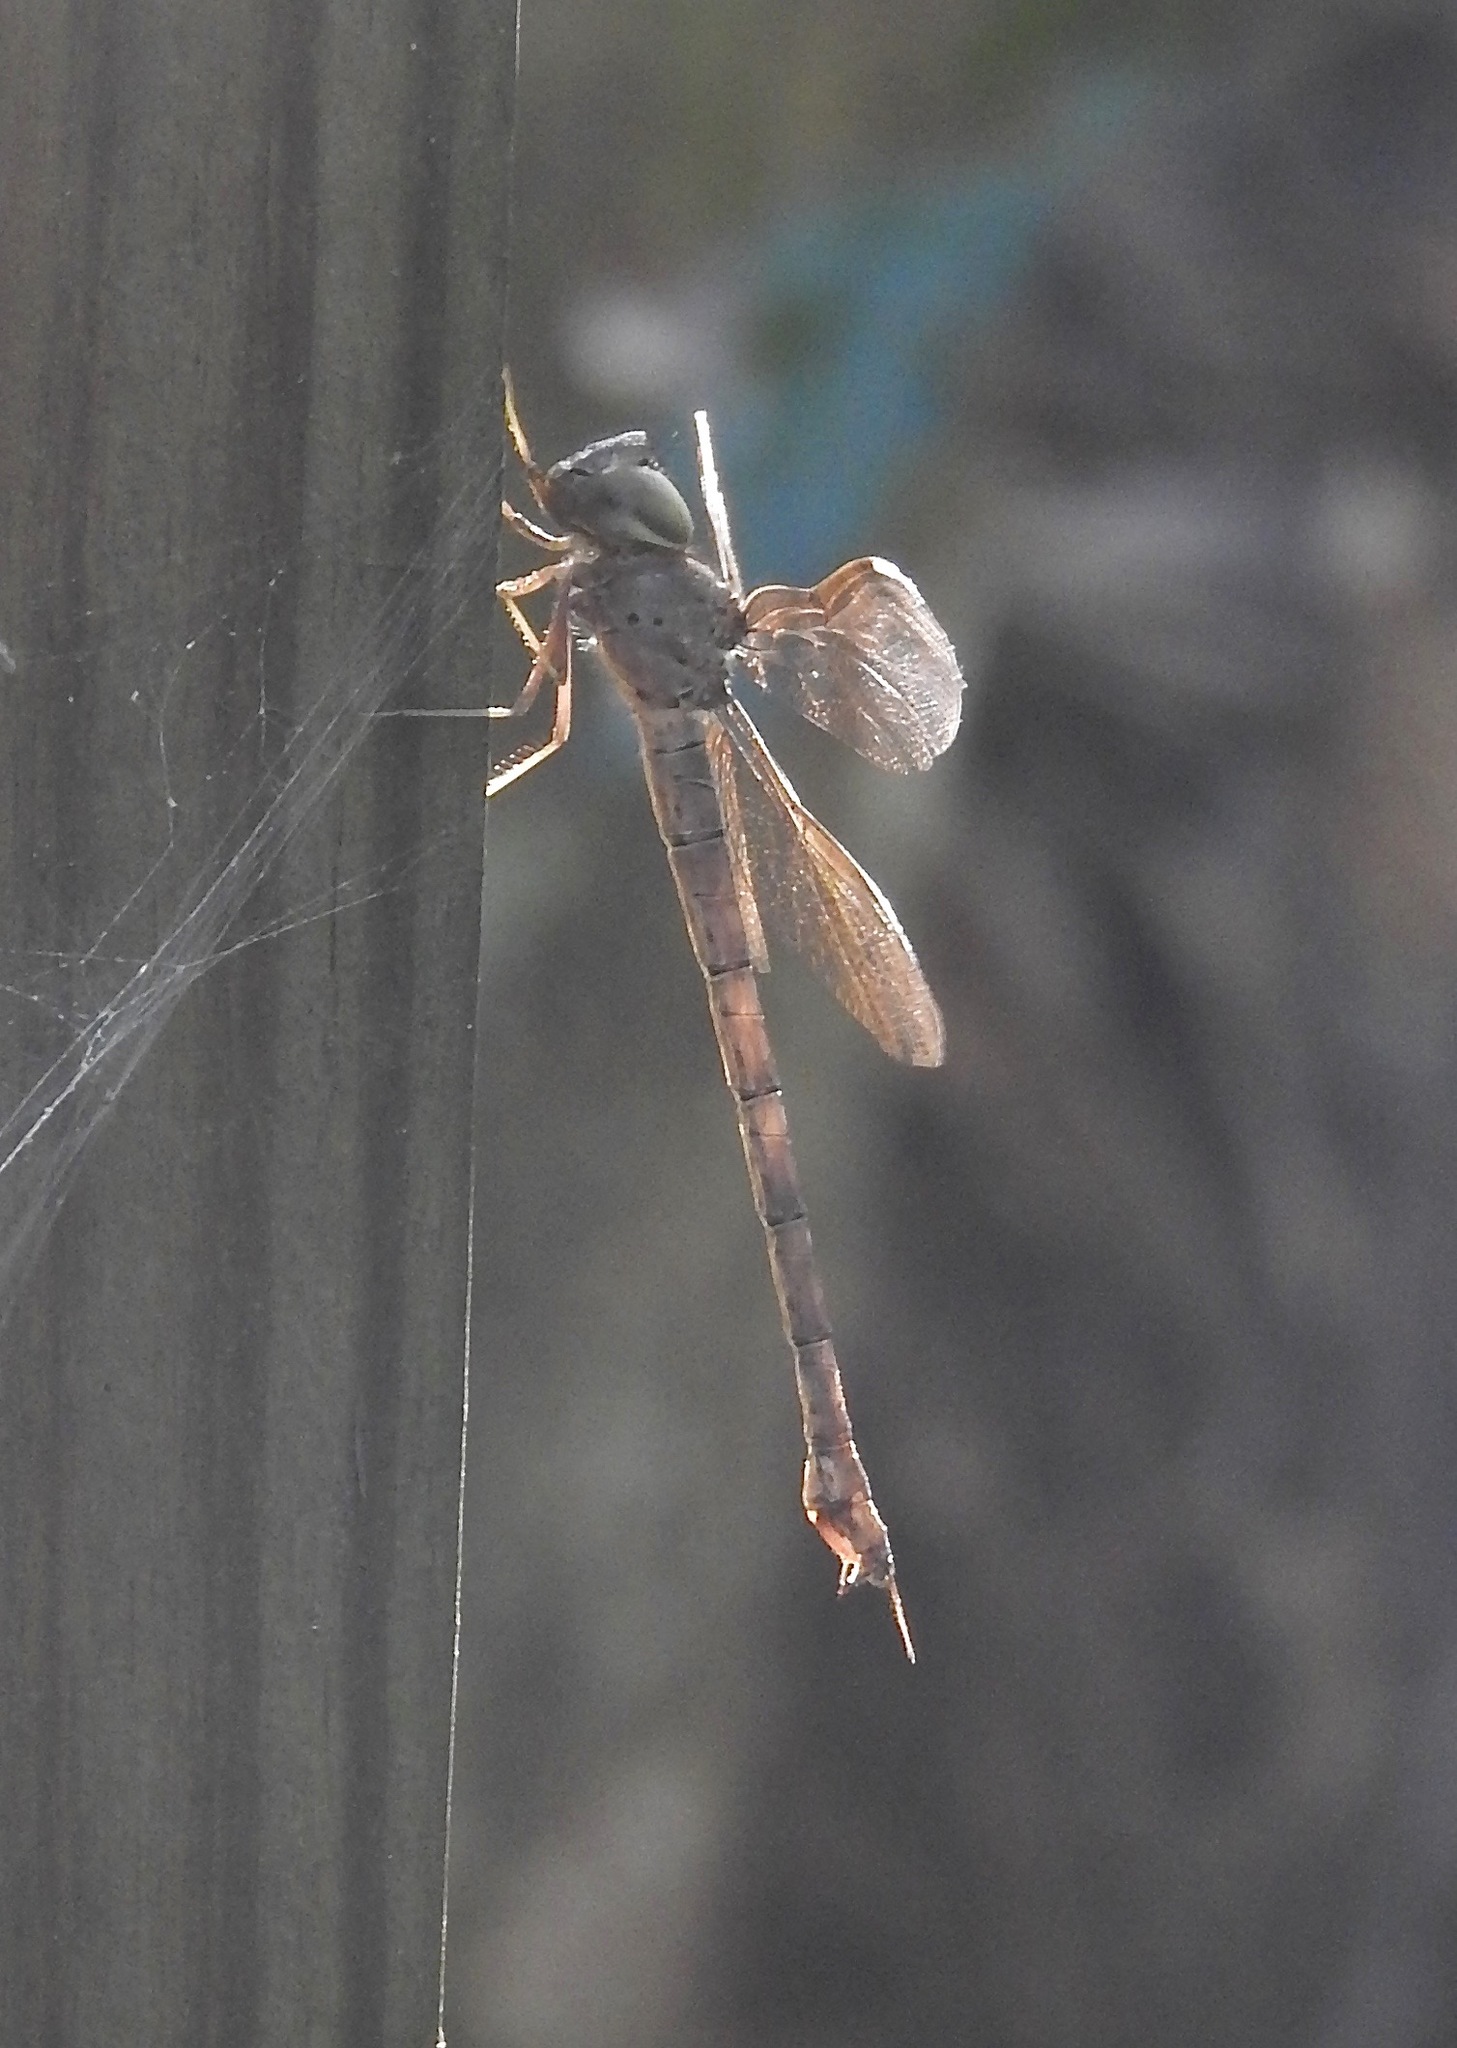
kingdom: Animalia
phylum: Arthropoda
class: Insecta
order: Odonata
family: Aeshnidae
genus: Gynacantha
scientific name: Gynacantha nervosa
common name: Twilight darner
